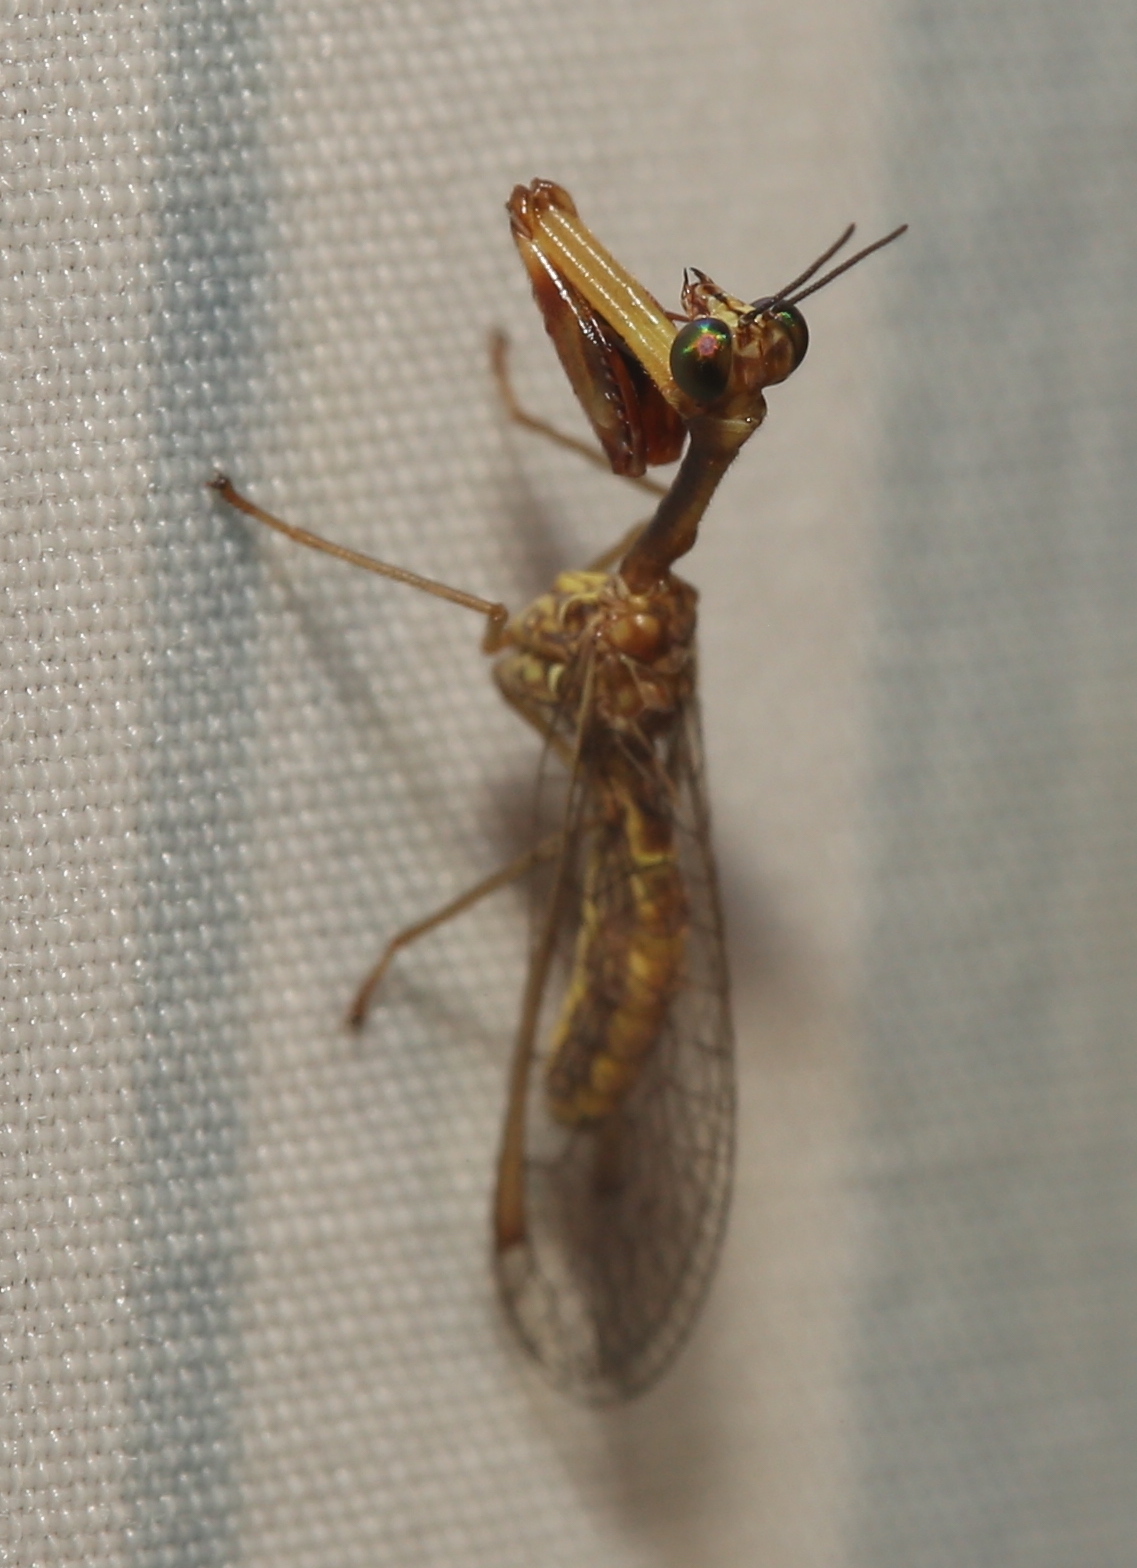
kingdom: Animalia
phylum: Arthropoda
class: Insecta
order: Neuroptera
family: Mantispidae
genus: Leptomantispa
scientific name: Leptomantispa pulchella
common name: Stevens's mantidfly
